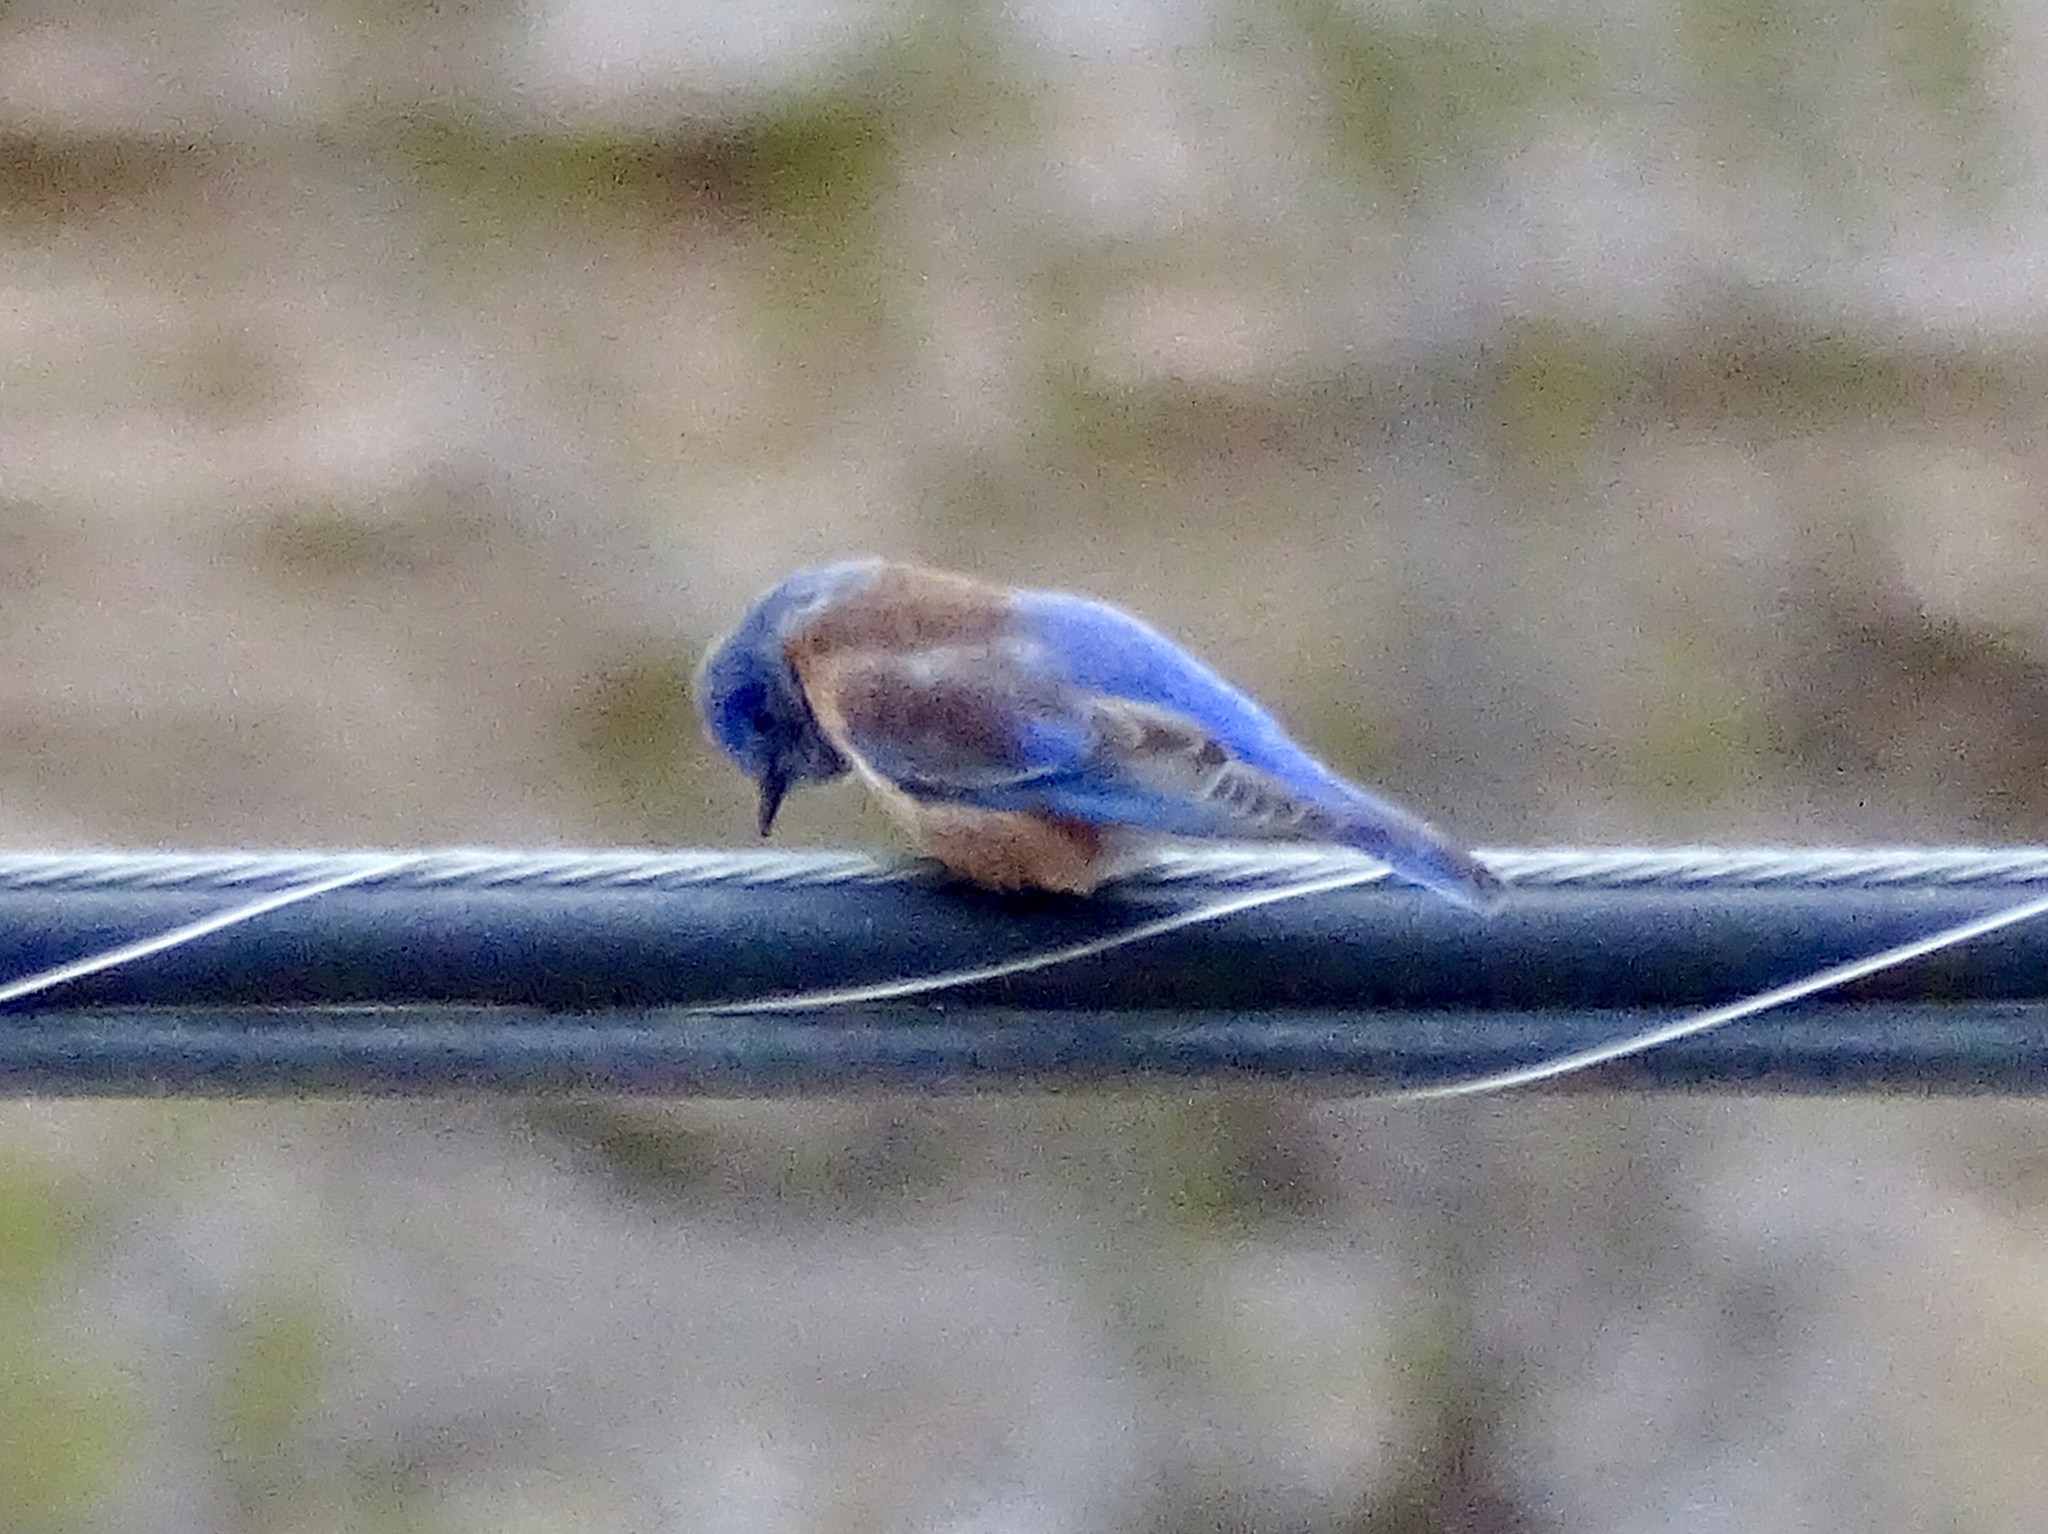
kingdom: Animalia
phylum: Chordata
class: Aves
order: Passeriformes
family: Turdidae
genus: Sialia
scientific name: Sialia mexicana
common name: Western bluebird
